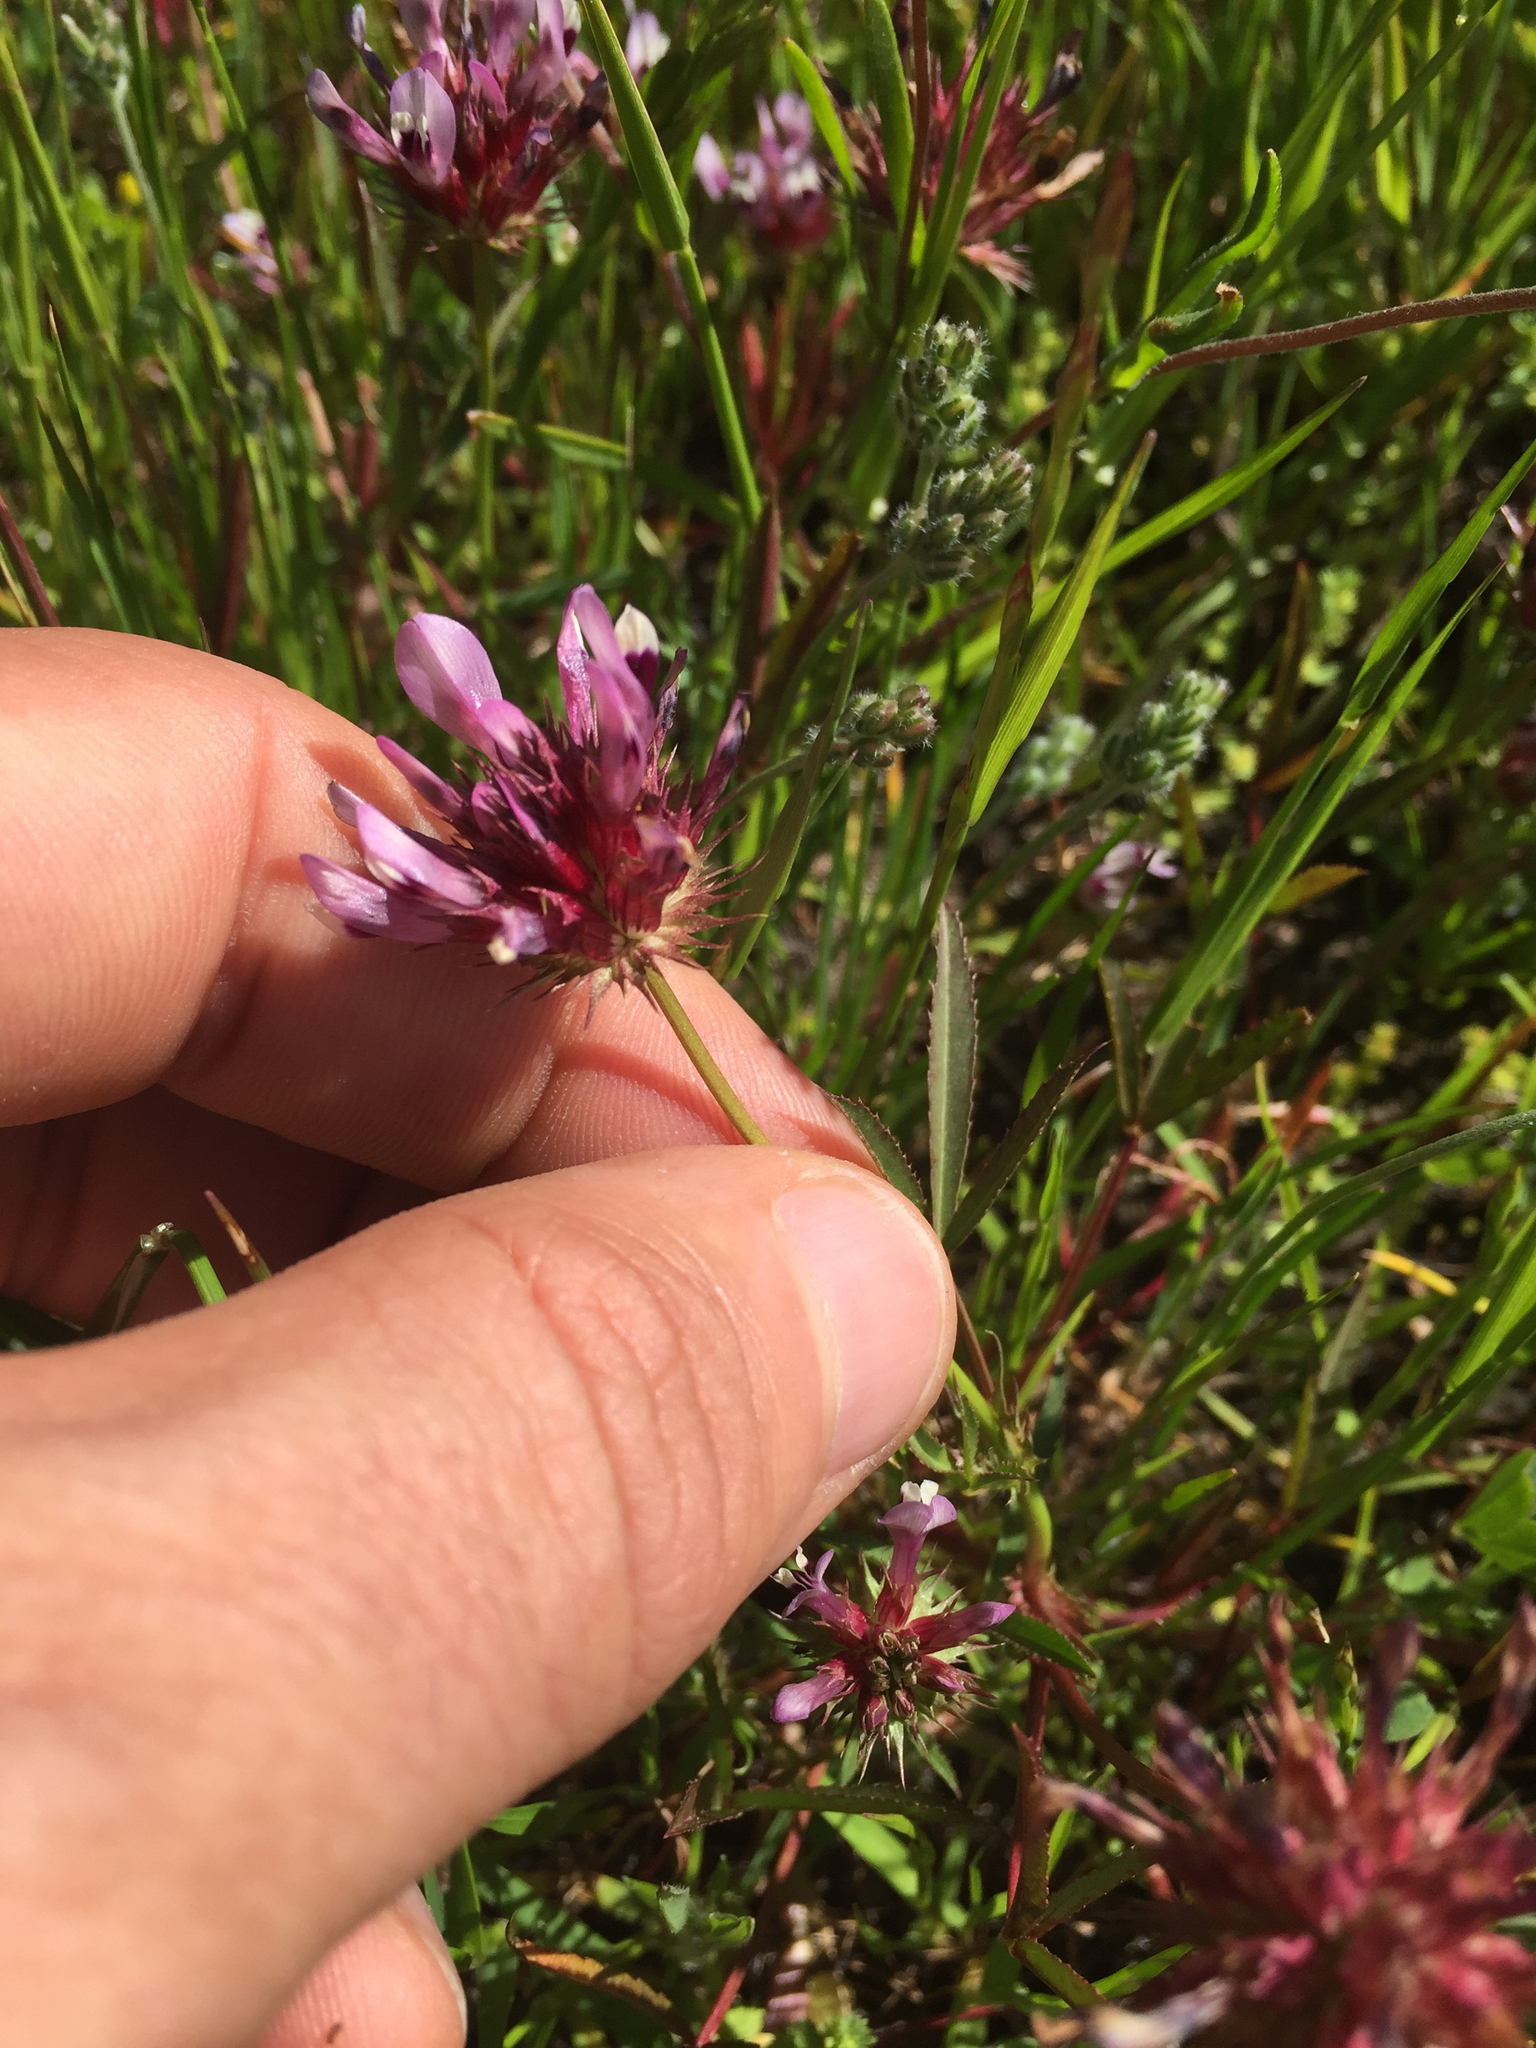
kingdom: Plantae
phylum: Tracheophyta
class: Magnoliopsida
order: Fabales
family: Fabaceae
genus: Trifolium
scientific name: Trifolium willdenovii
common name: Tomcat clover
